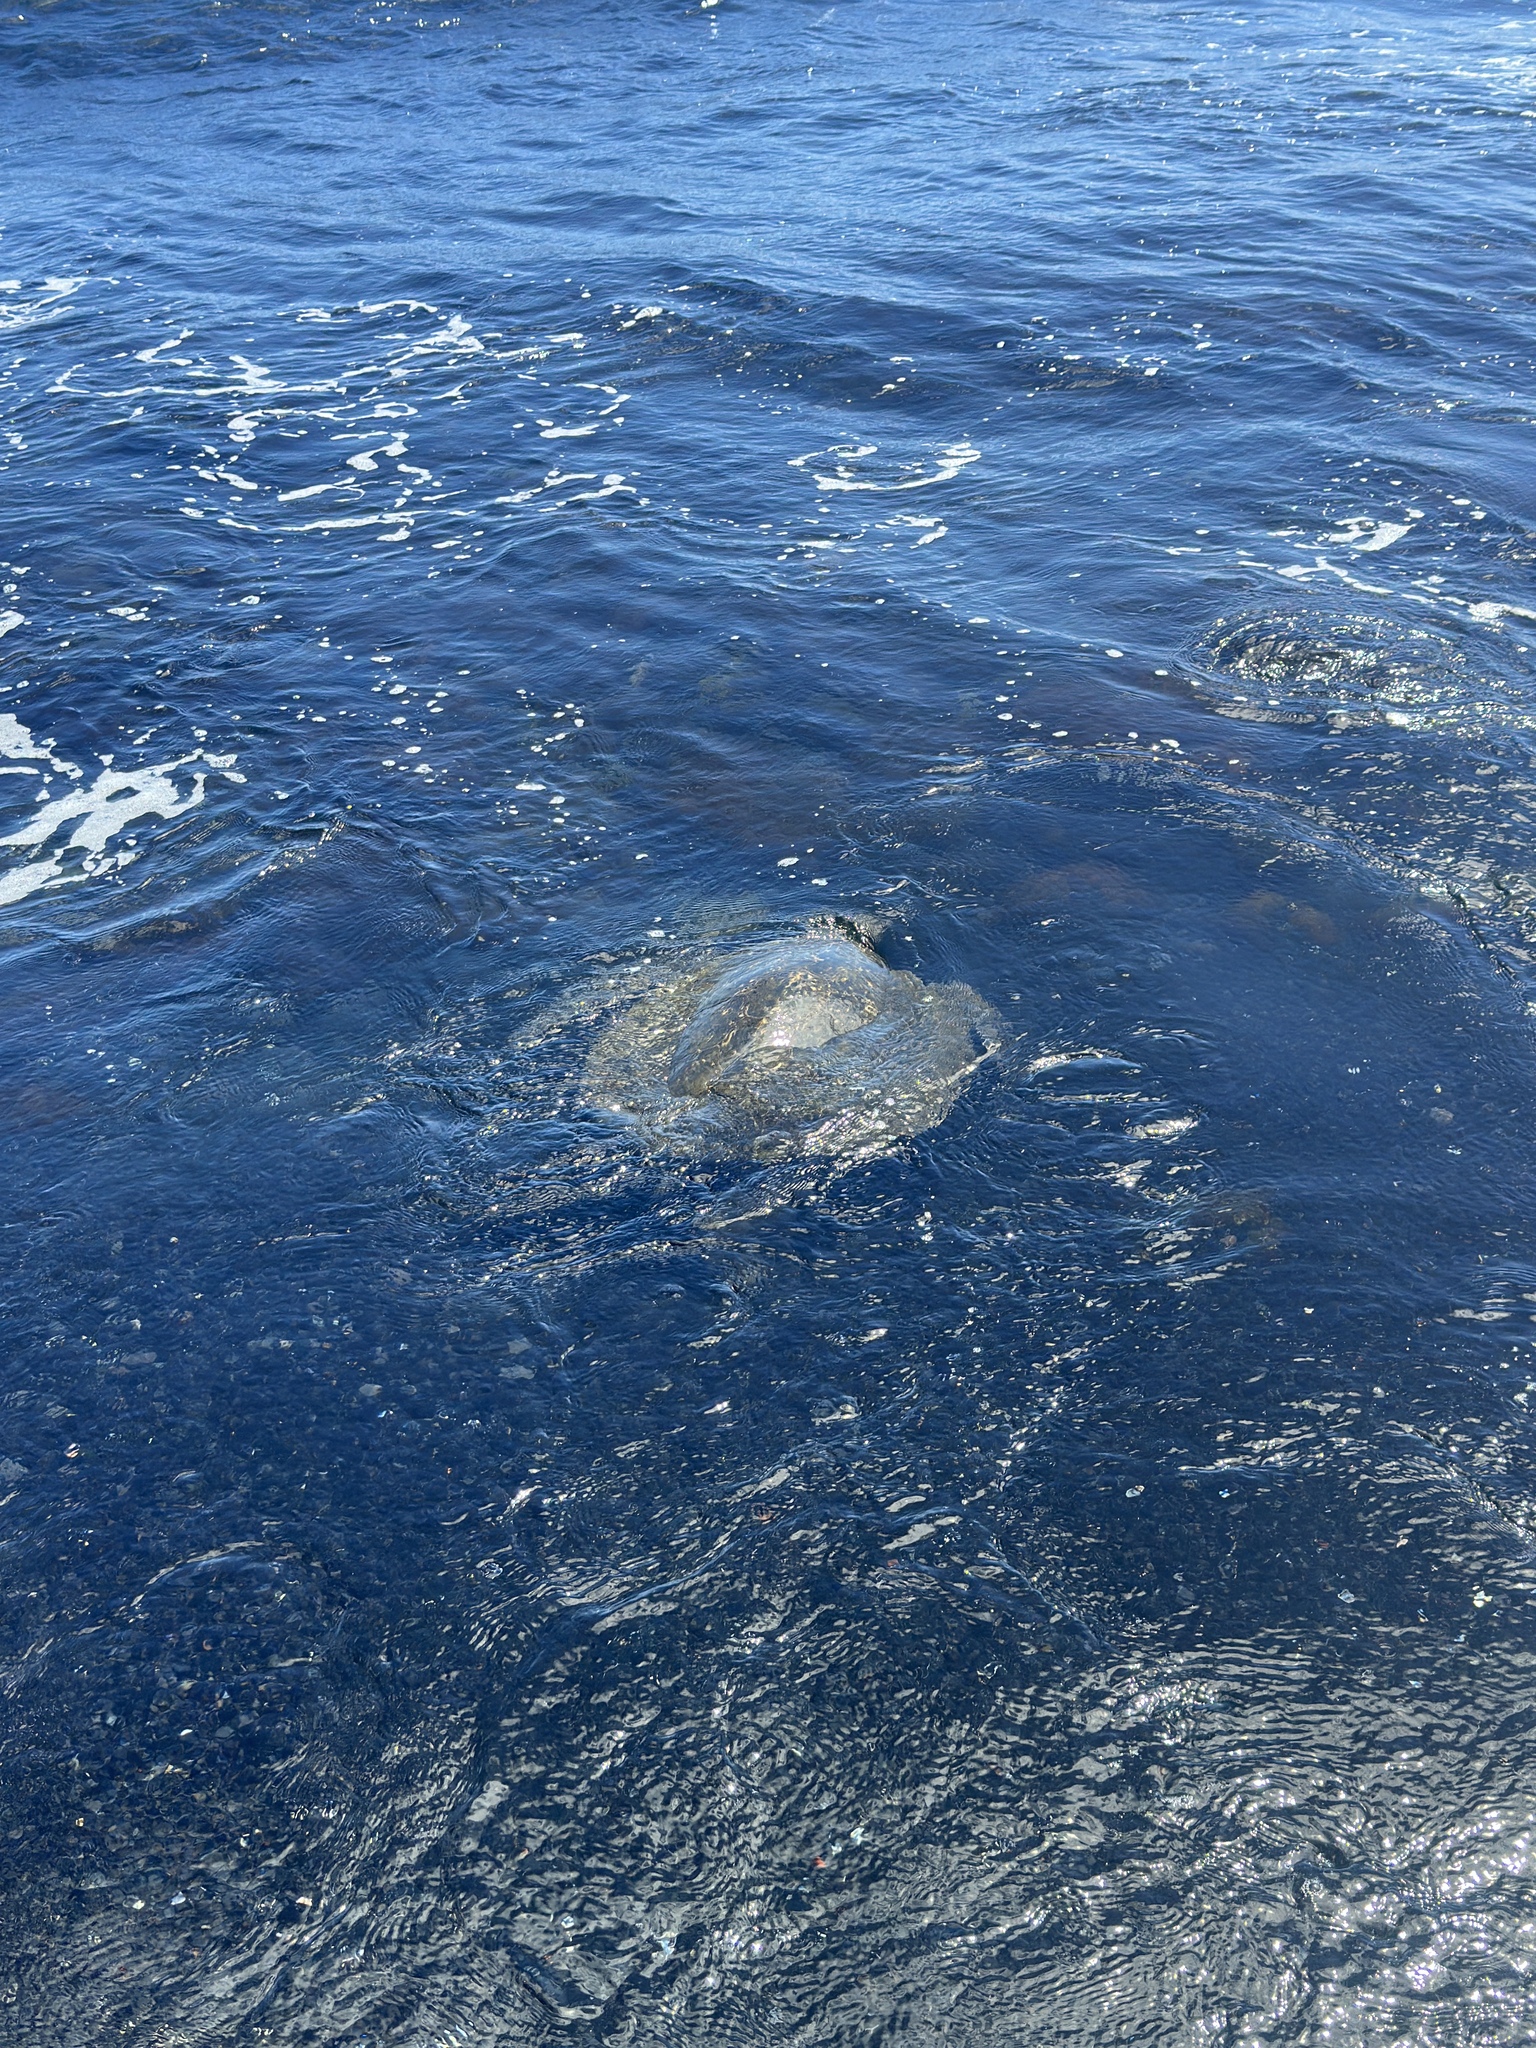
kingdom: Animalia
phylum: Chordata
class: Testudines
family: Cheloniidae
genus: Chelonia
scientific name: Chelonia mydas
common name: Green turtle
